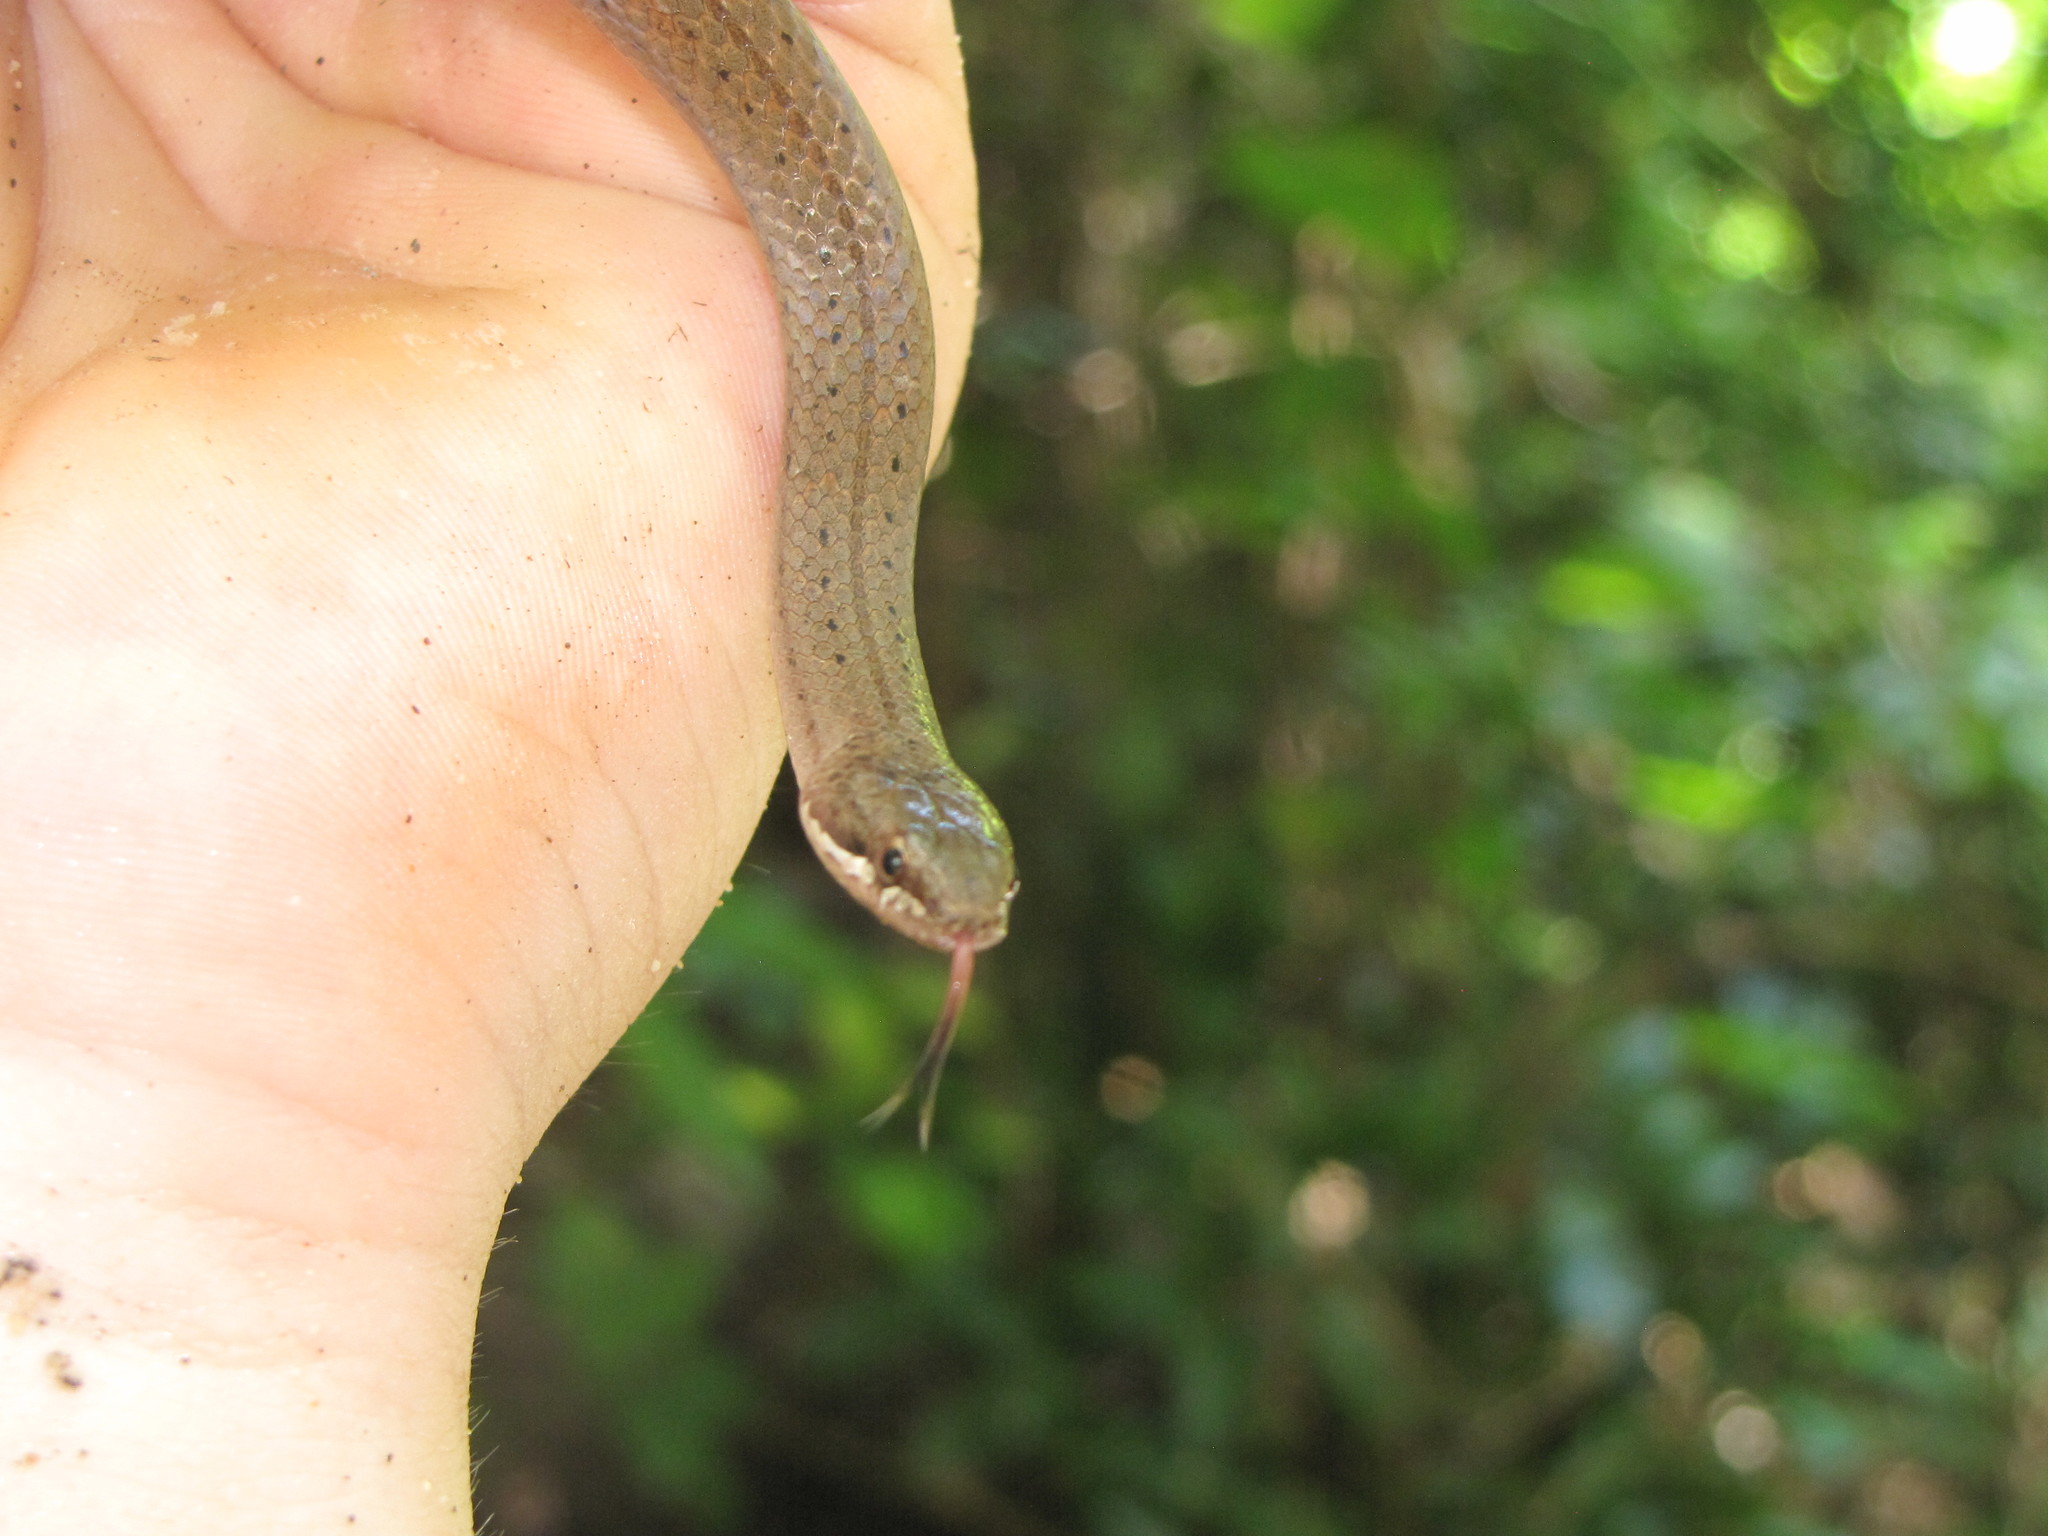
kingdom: Animalia
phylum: Chordata
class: Squamata
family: Pseudoxyrhophiidae
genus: Liophidium
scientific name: Liophidium torquatum
